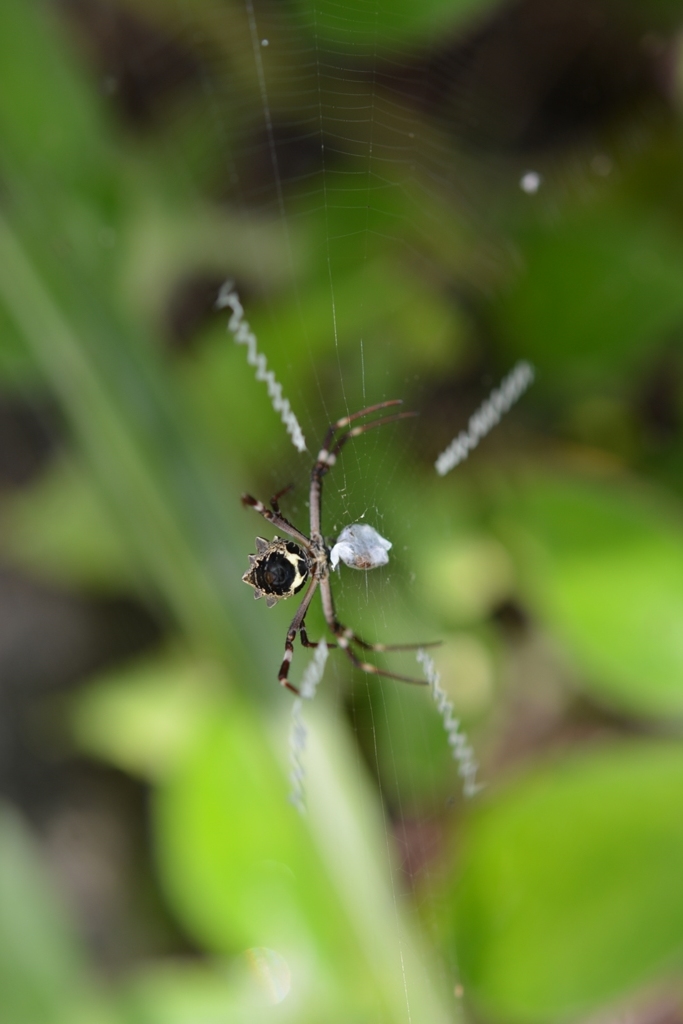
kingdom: Animalia
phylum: Arthropoda
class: Arachnida
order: Araneae
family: Araneidae
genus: Argiope
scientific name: Argiope argentata
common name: Orb weavers
